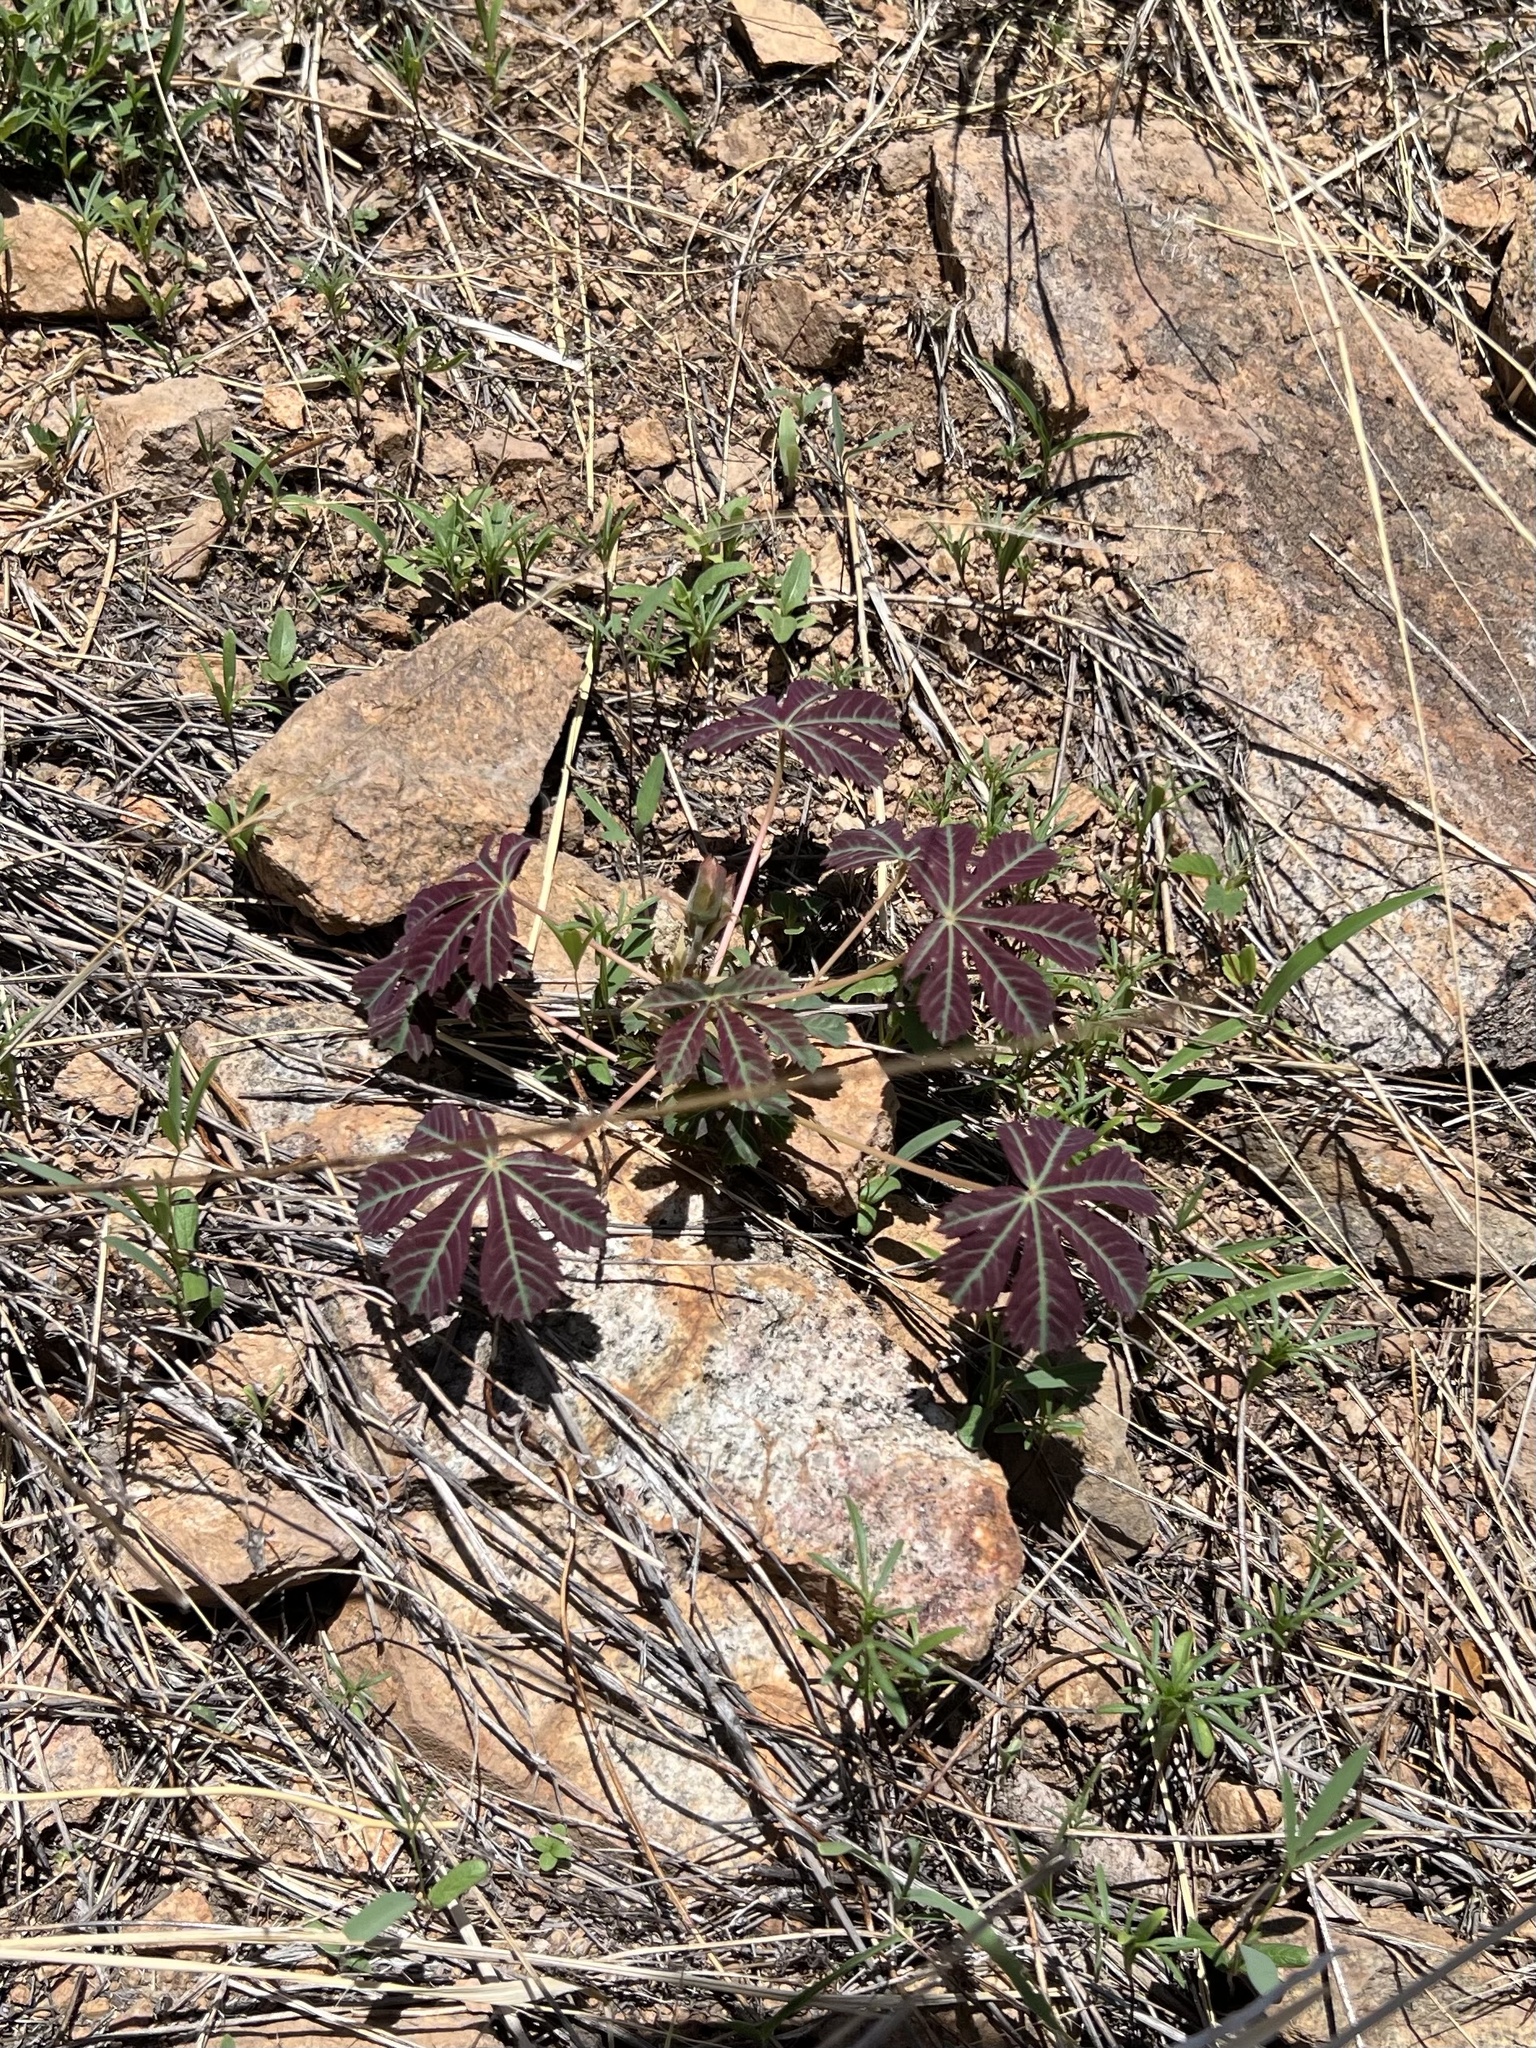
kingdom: Plantae
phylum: Tracheophyta
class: Magnoliopsida
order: Malvales
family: Cochlospermaceae
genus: Cochlospermum
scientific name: Cochlospermum palmatifidum
